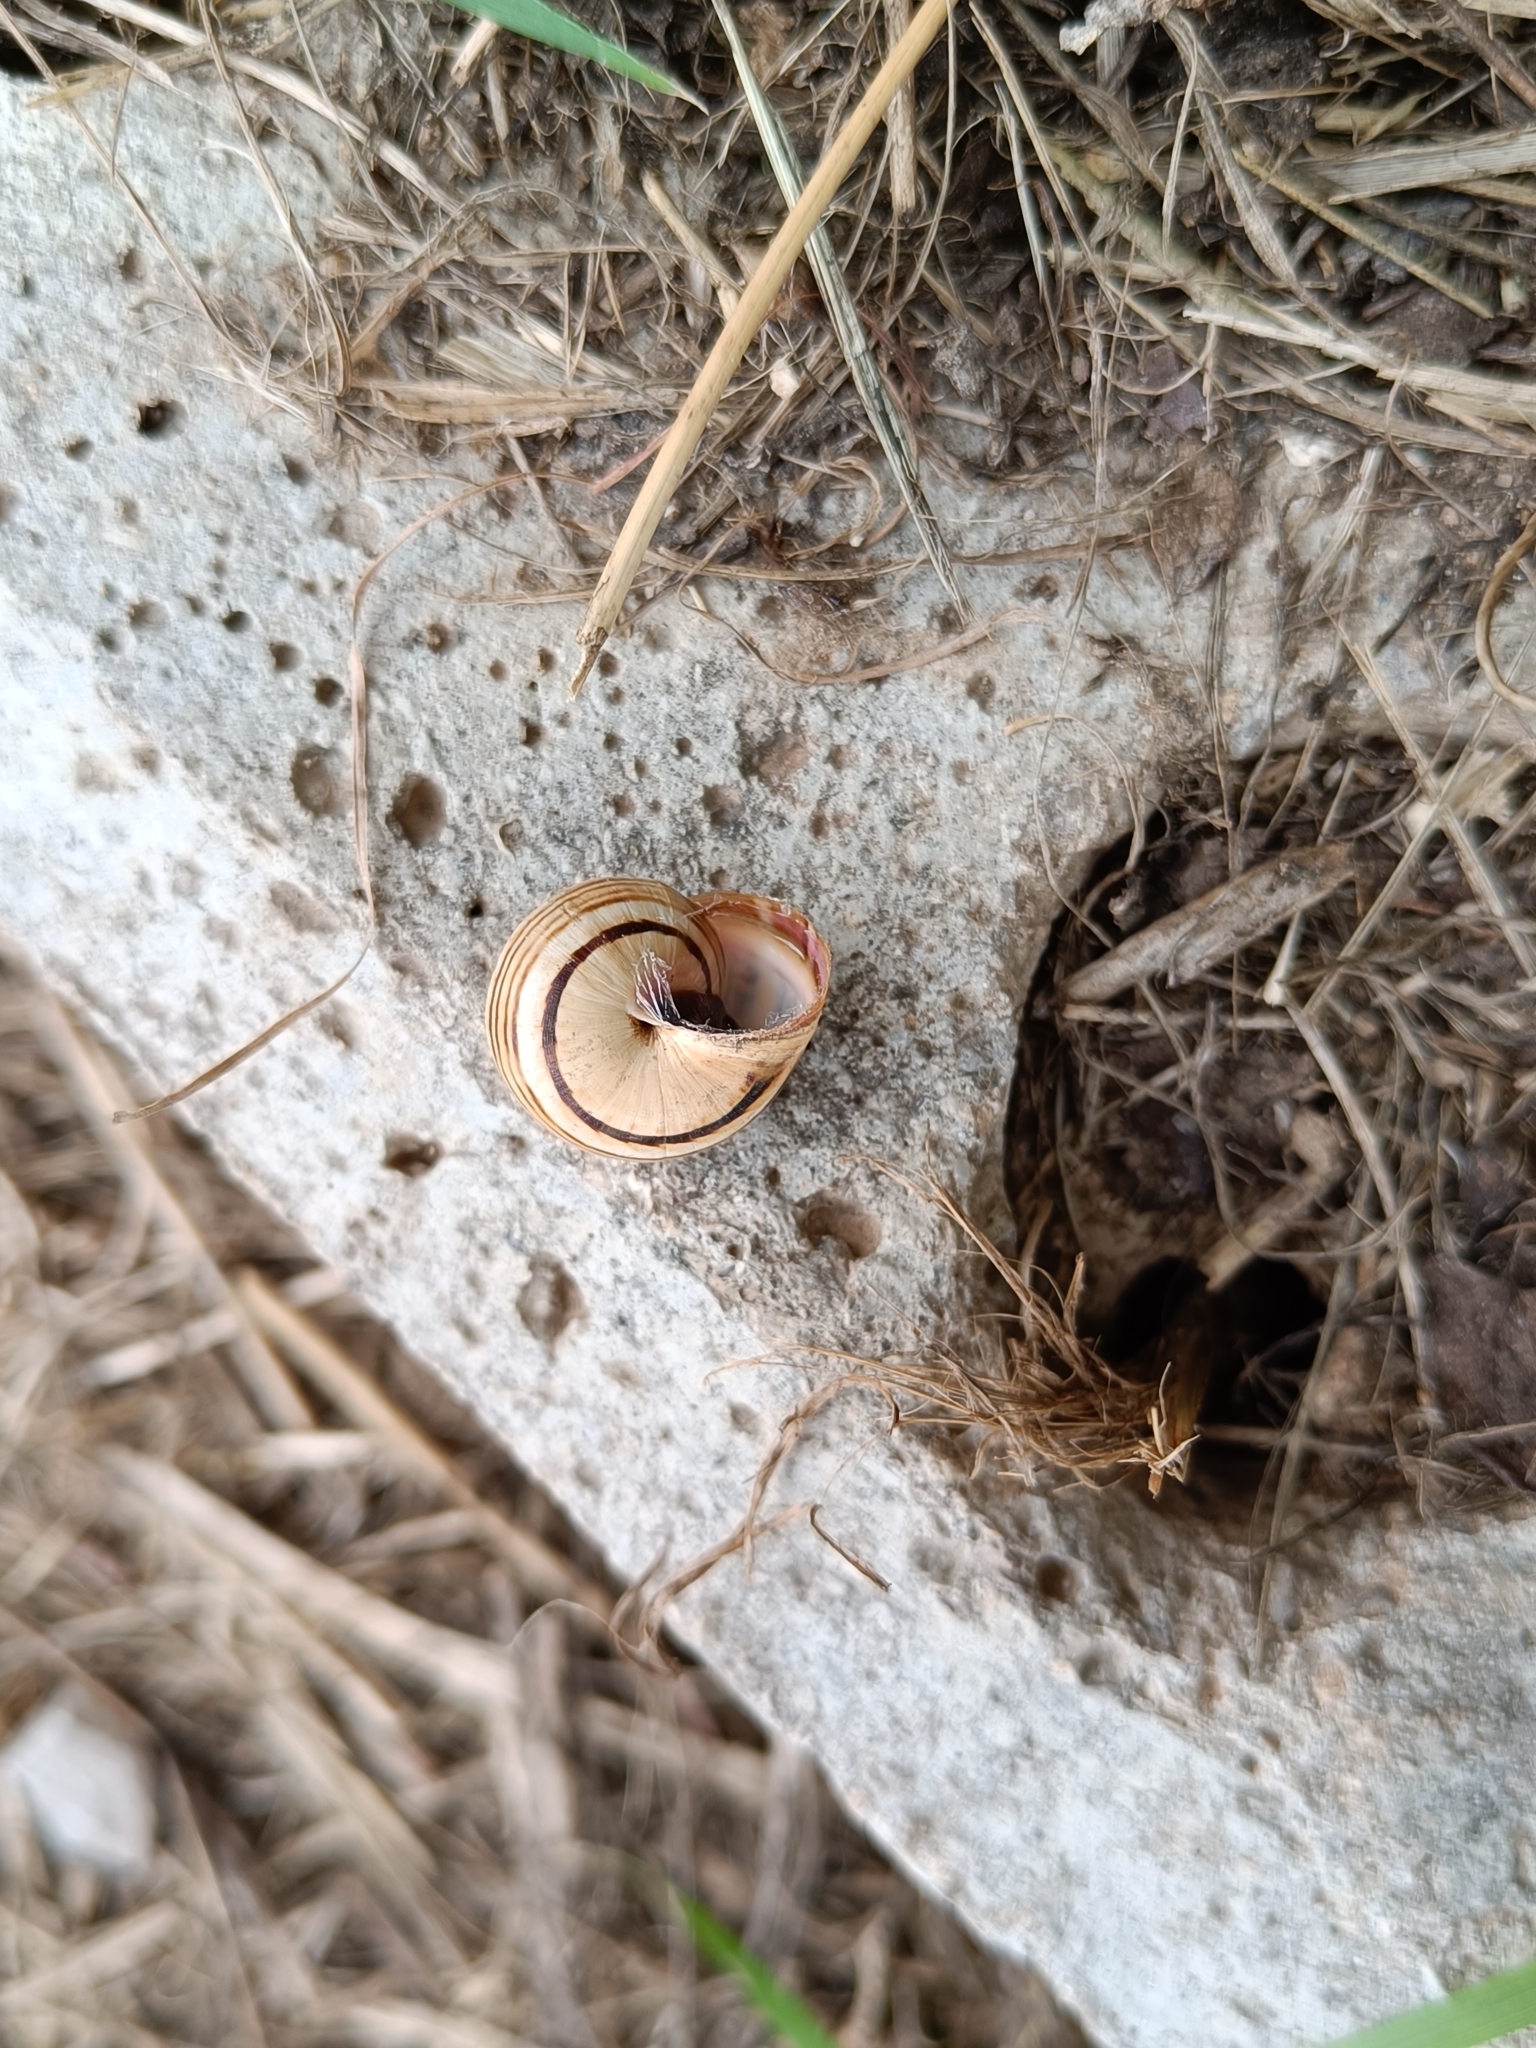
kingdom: Animalia
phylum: Mollusca
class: Gastropoda
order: Stylommatophora
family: Helicidae
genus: Theba
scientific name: Theba pisana
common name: White snail
